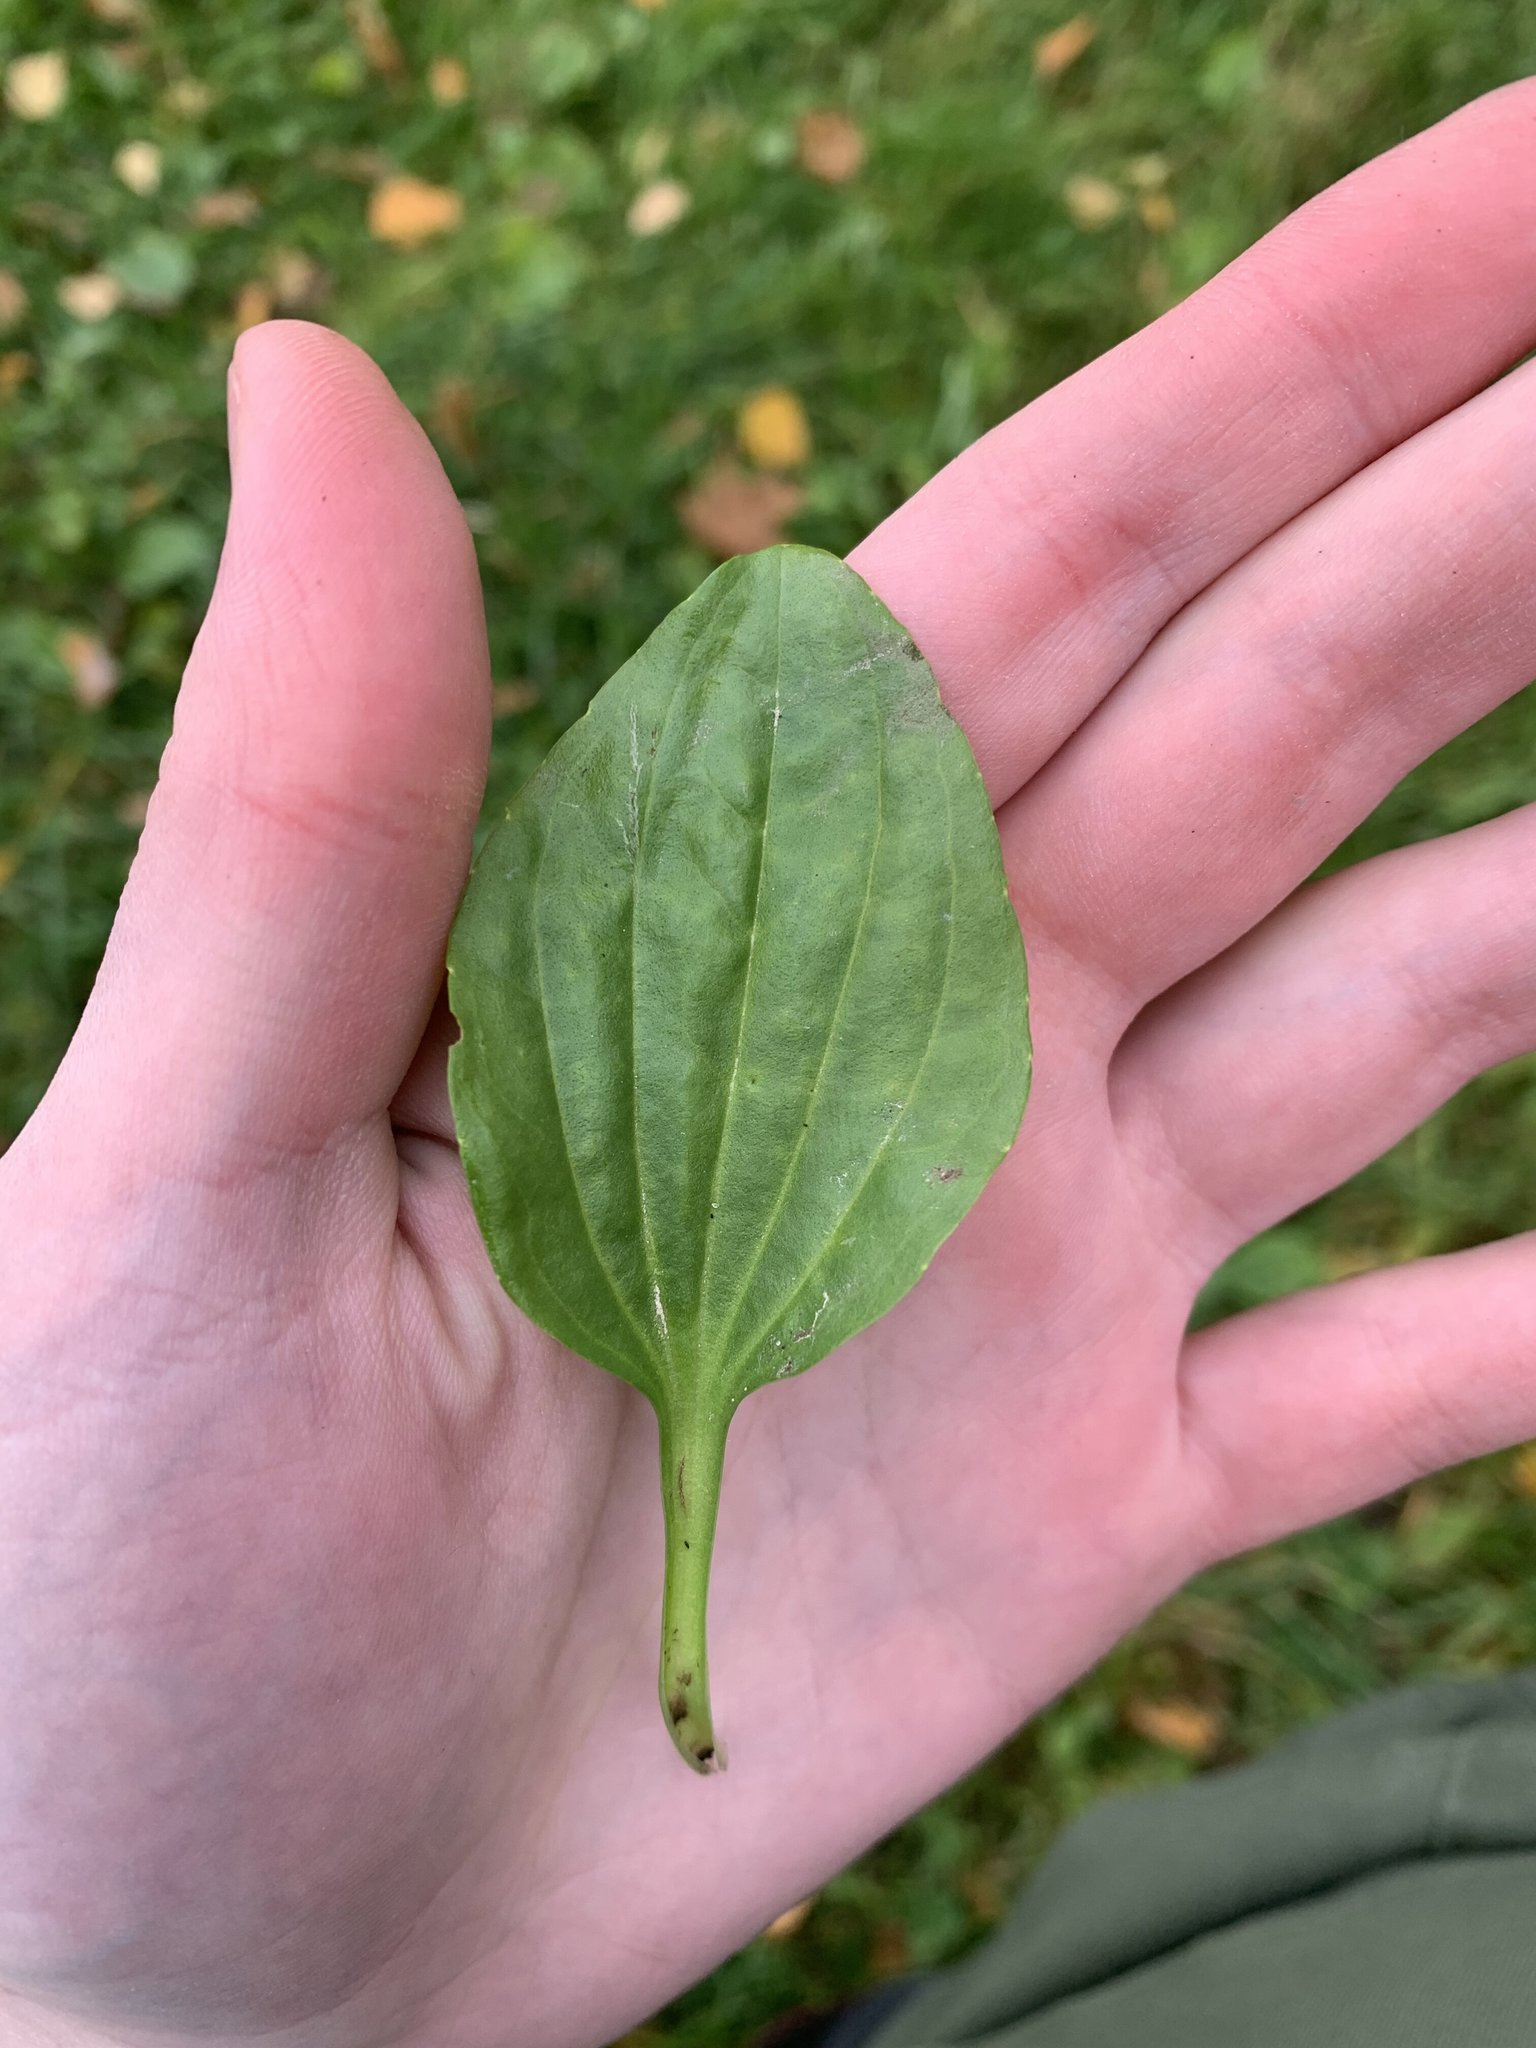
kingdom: Plantae
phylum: Tracheophyta
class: Magnoliopsida
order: Lamiales
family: Plantaginaceae
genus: Plantago
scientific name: Plantago major
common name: Common plantain
